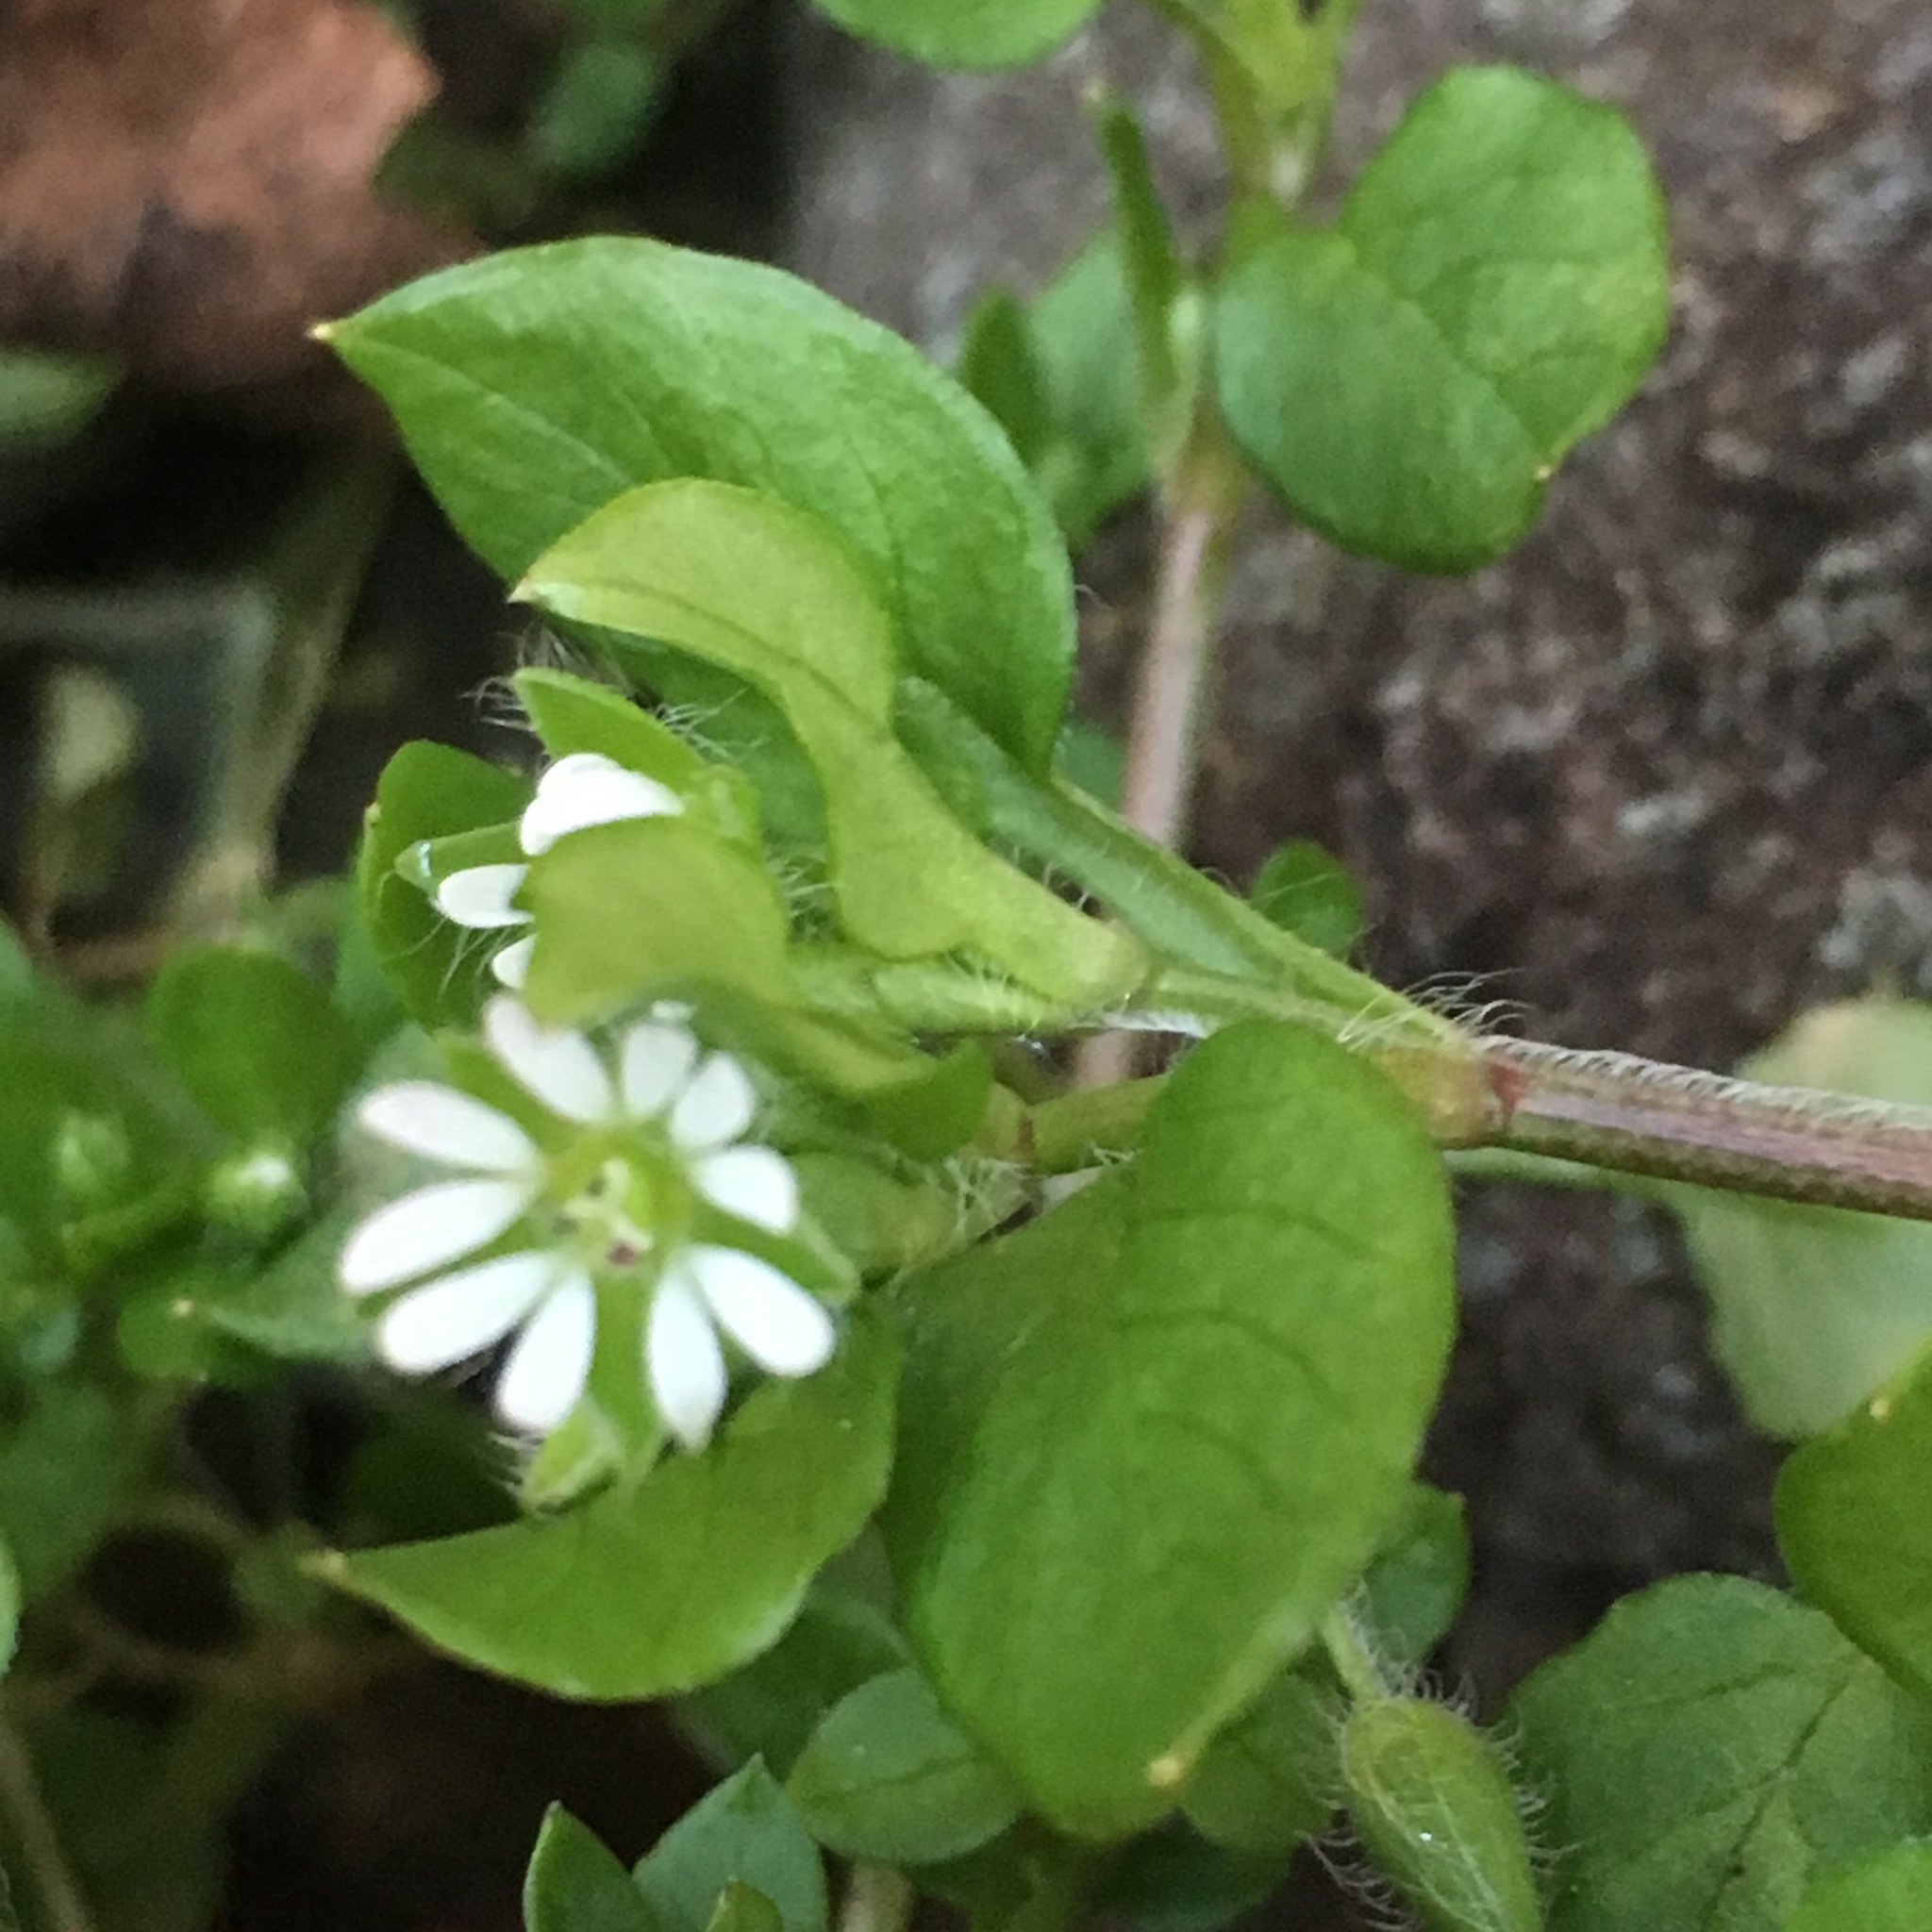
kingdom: Plantae
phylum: Tracheophyta
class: Magnoliopsida
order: Caryophyllales
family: Caryophyllaceae
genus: Stellaria
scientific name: Stellaria media
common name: Common chickweed
